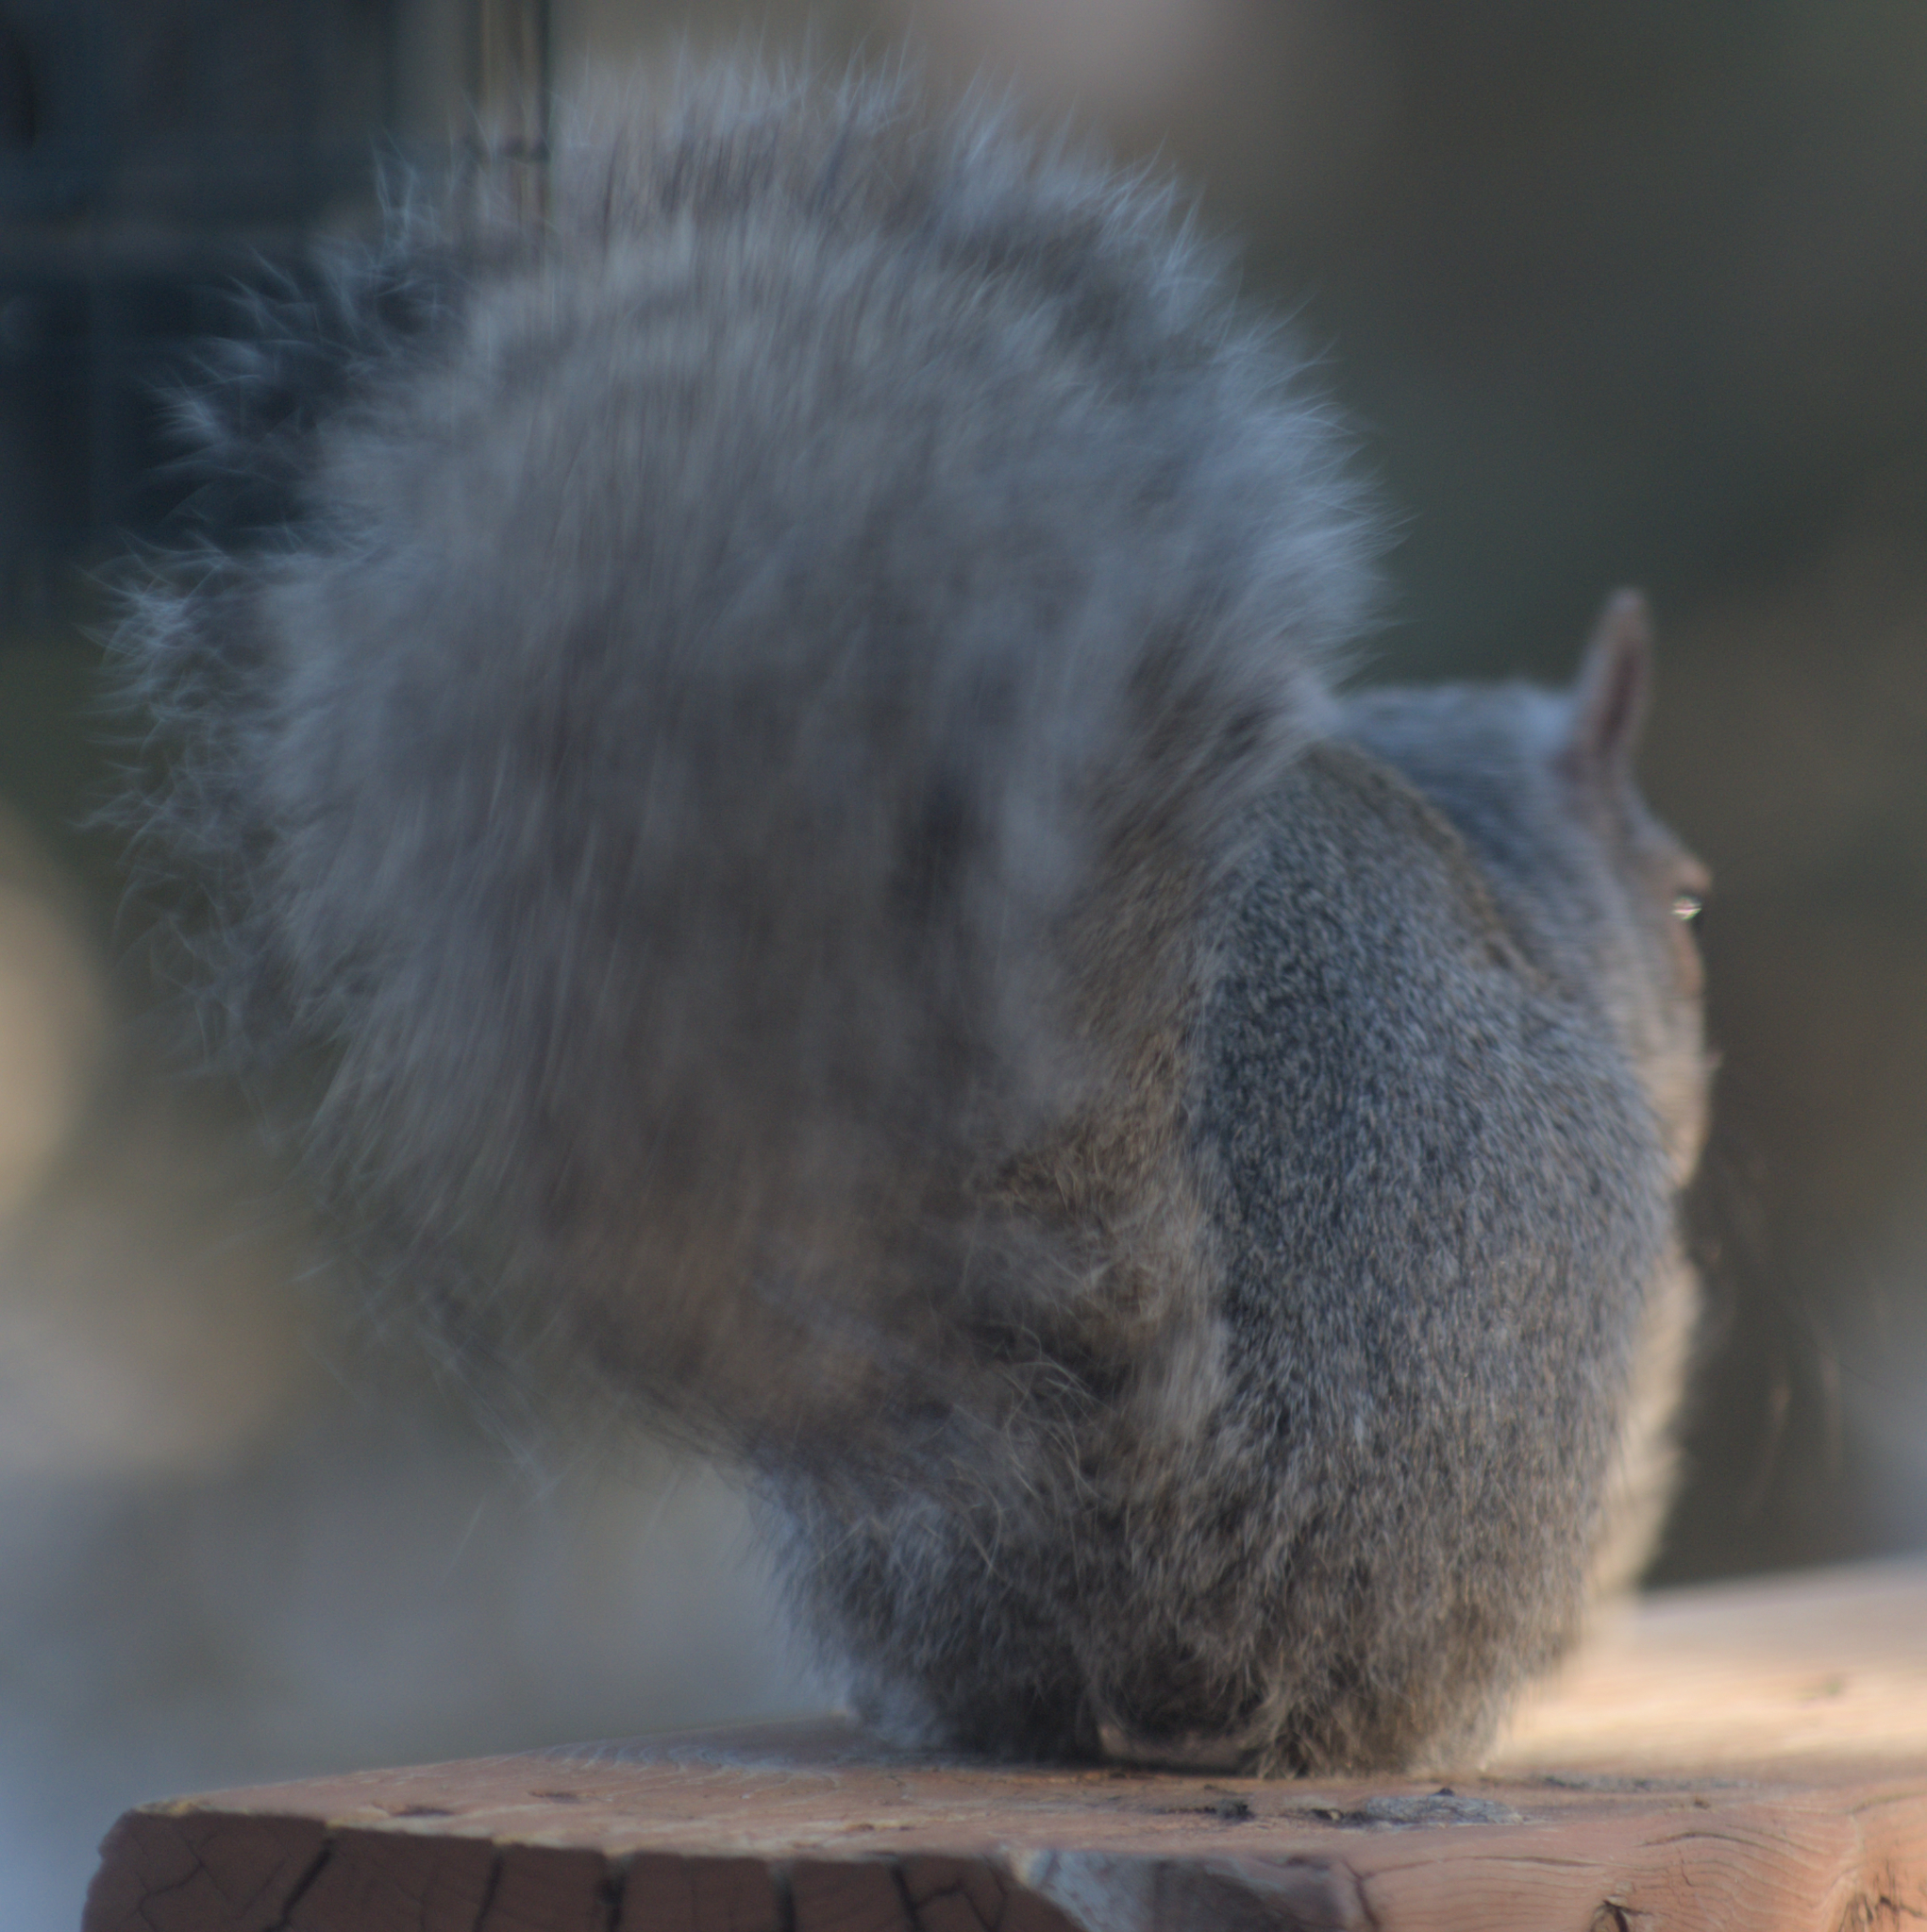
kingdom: Animalia
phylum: Chordata
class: Mammalia
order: Rodentia
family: Sciuridae
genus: Sciurus
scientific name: Sciurus carolinensis
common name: Eastern gray squirrel
